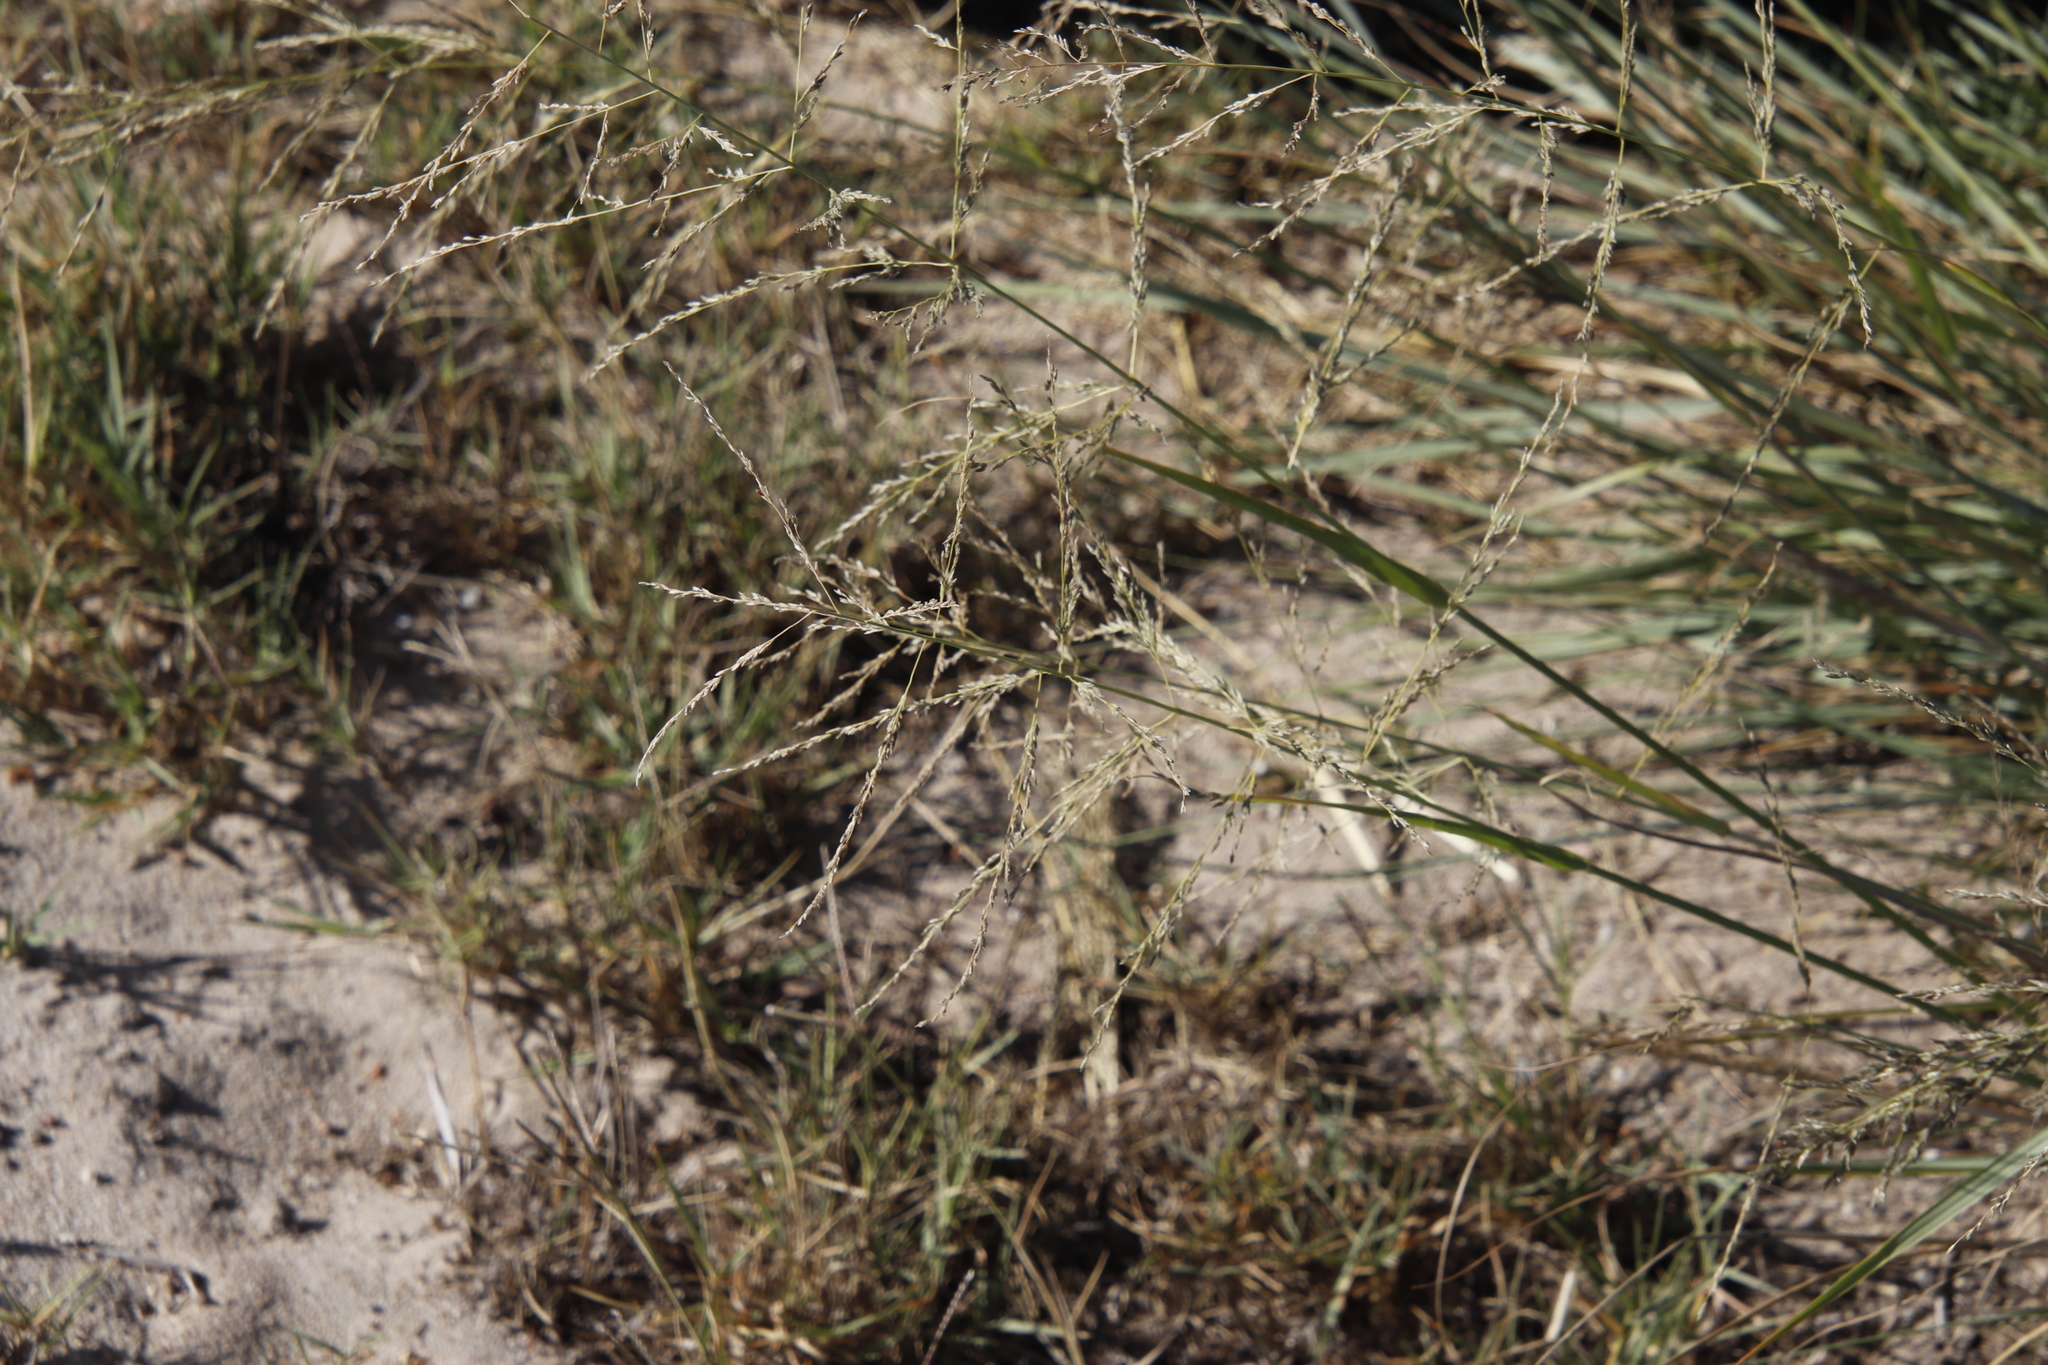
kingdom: Plantae
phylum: Tracheophyta
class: Liliopsida
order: Poales
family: Poaceae
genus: Eragrostis
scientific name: Eragrostis curvula
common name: African love-grass
